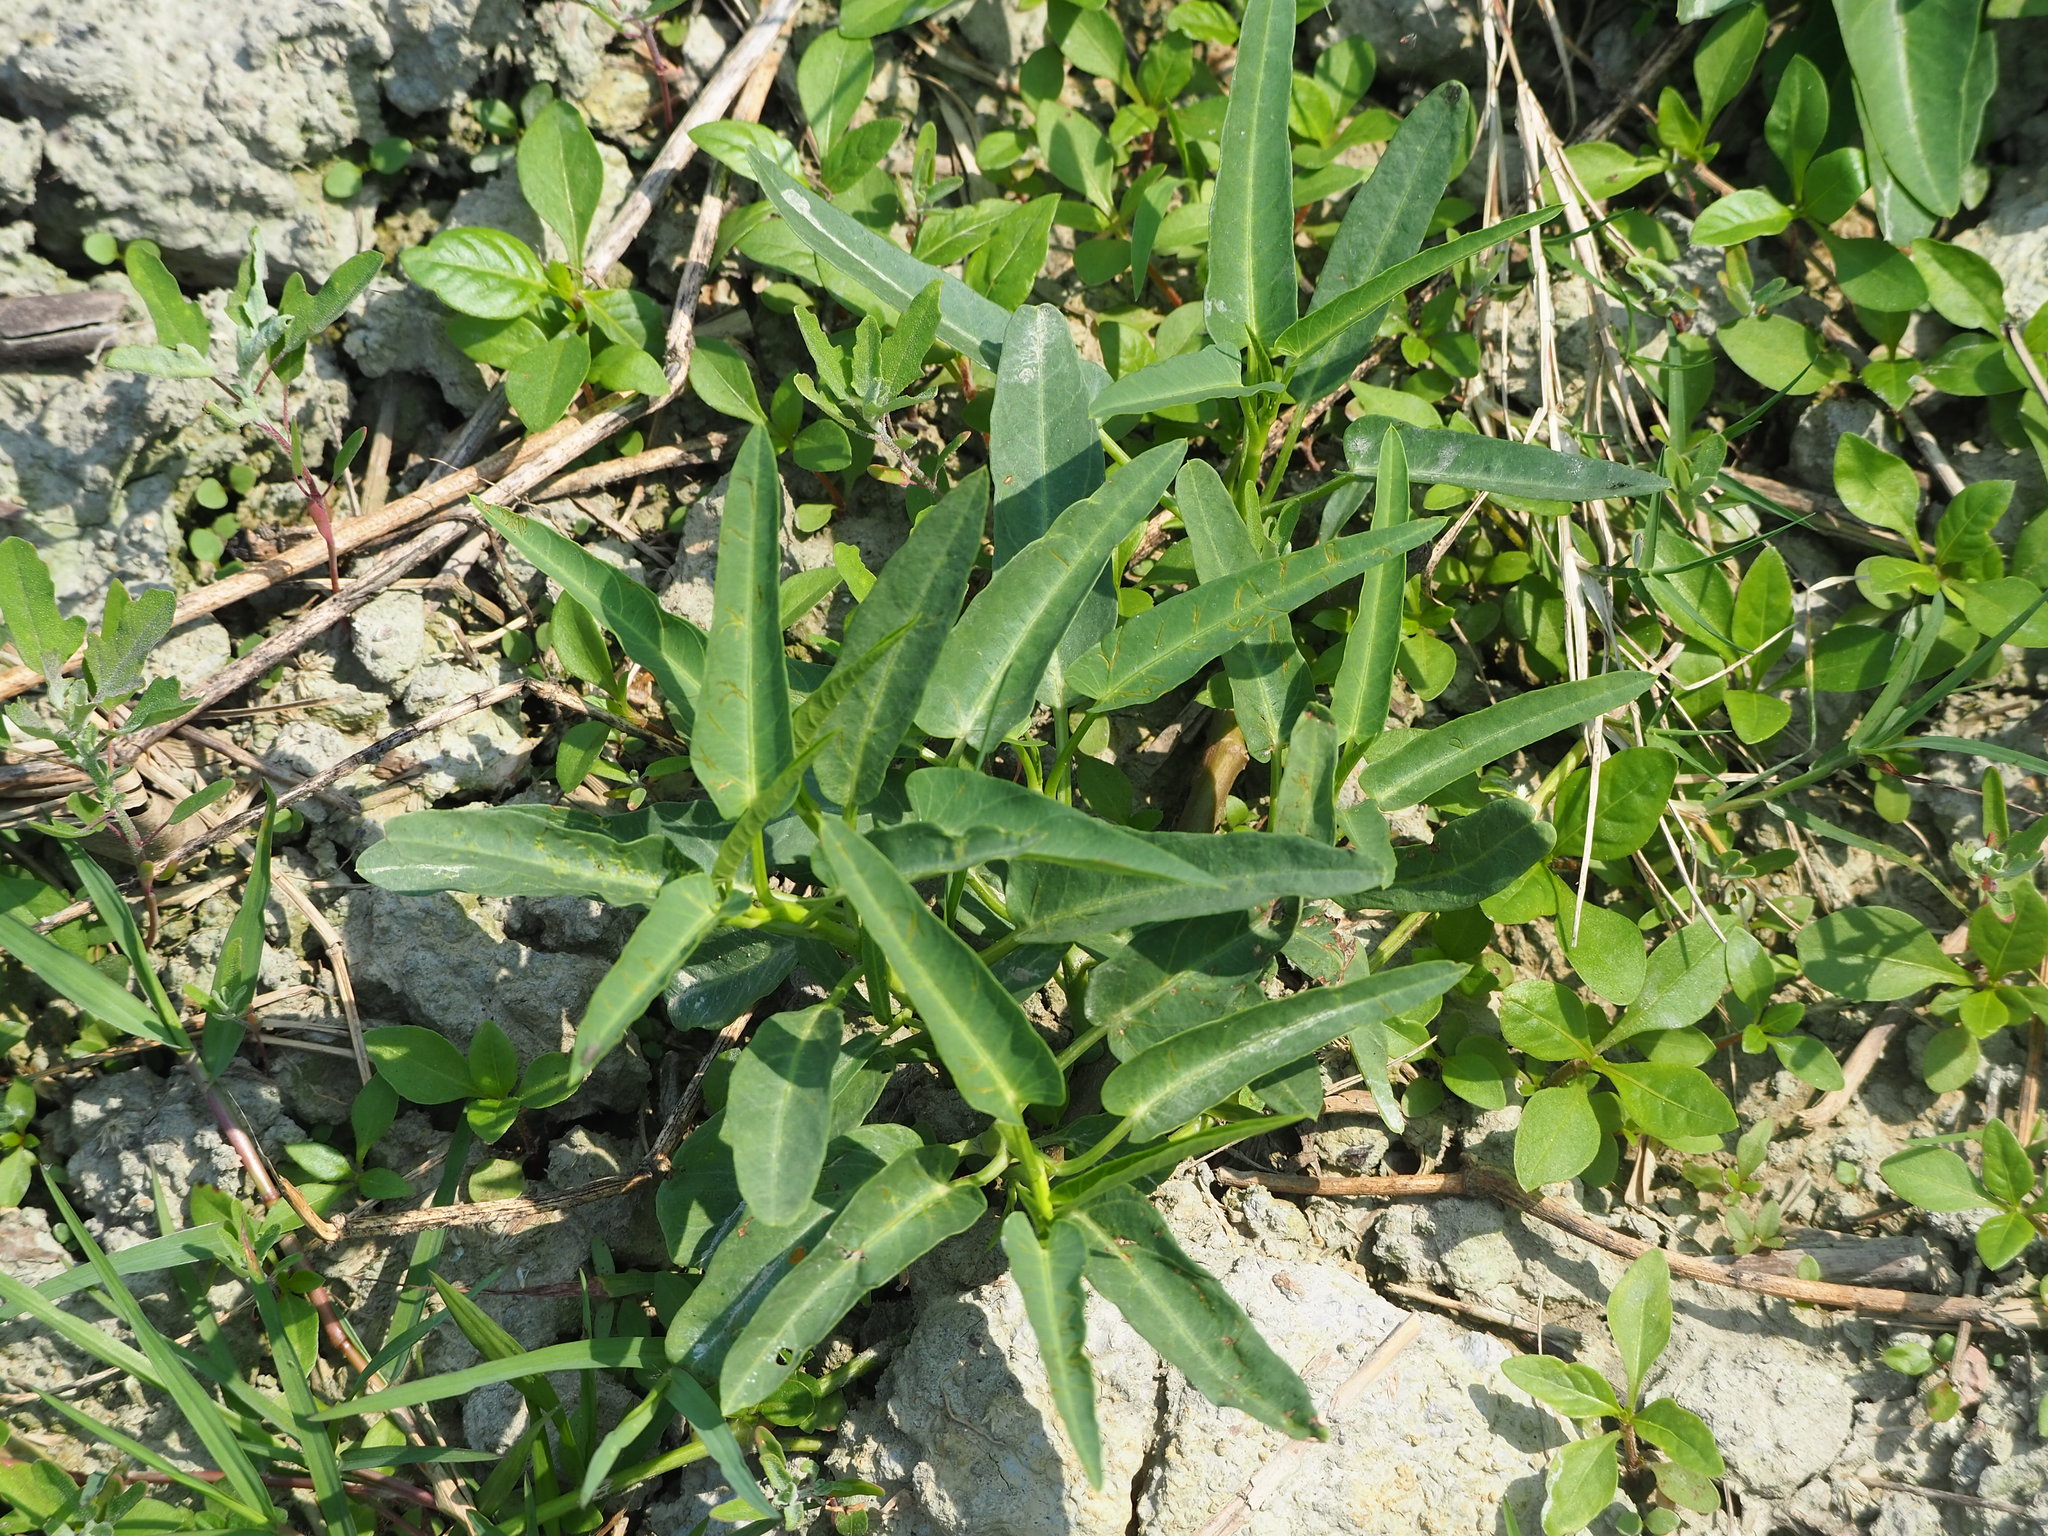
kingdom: Plantae
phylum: Tracheophyta
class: Magnoliopsida
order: Solanales
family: Convolvulaceae
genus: Ipomoea
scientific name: Ipomoea aquatica
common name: Swamp morning-glory
